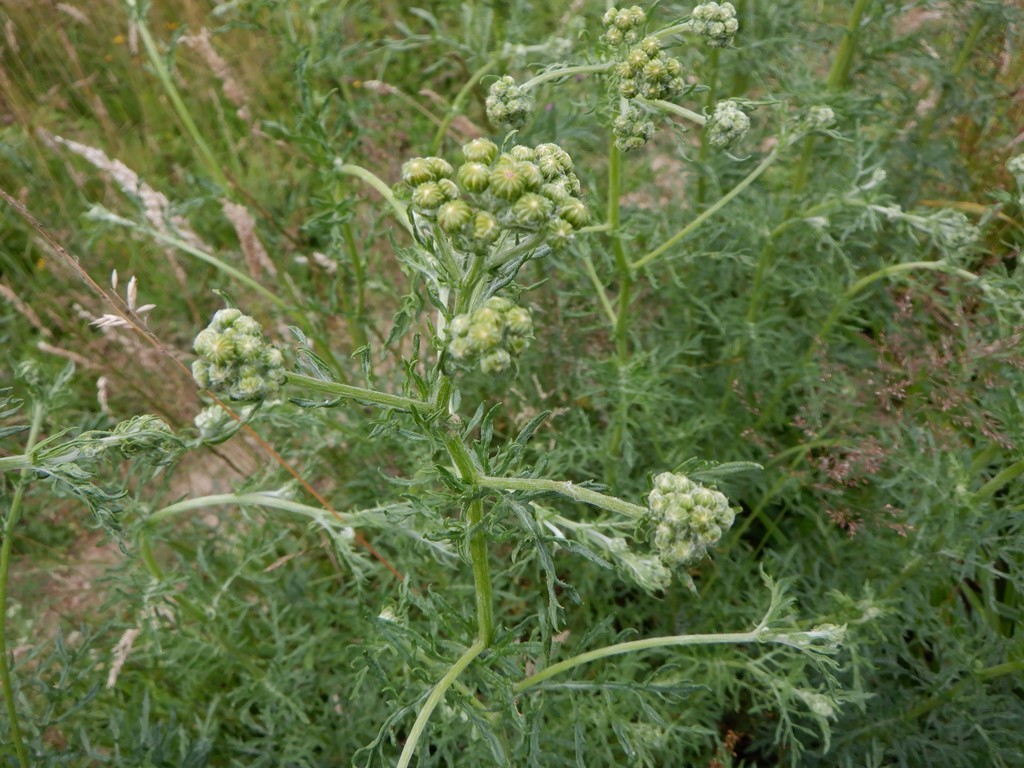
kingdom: Plantae
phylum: Tracheophyta
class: Magnoliopsida
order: Asterales
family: Asteraceae
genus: Jacobaea
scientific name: Jacobaea erucifolia
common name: Hoary ragwort
